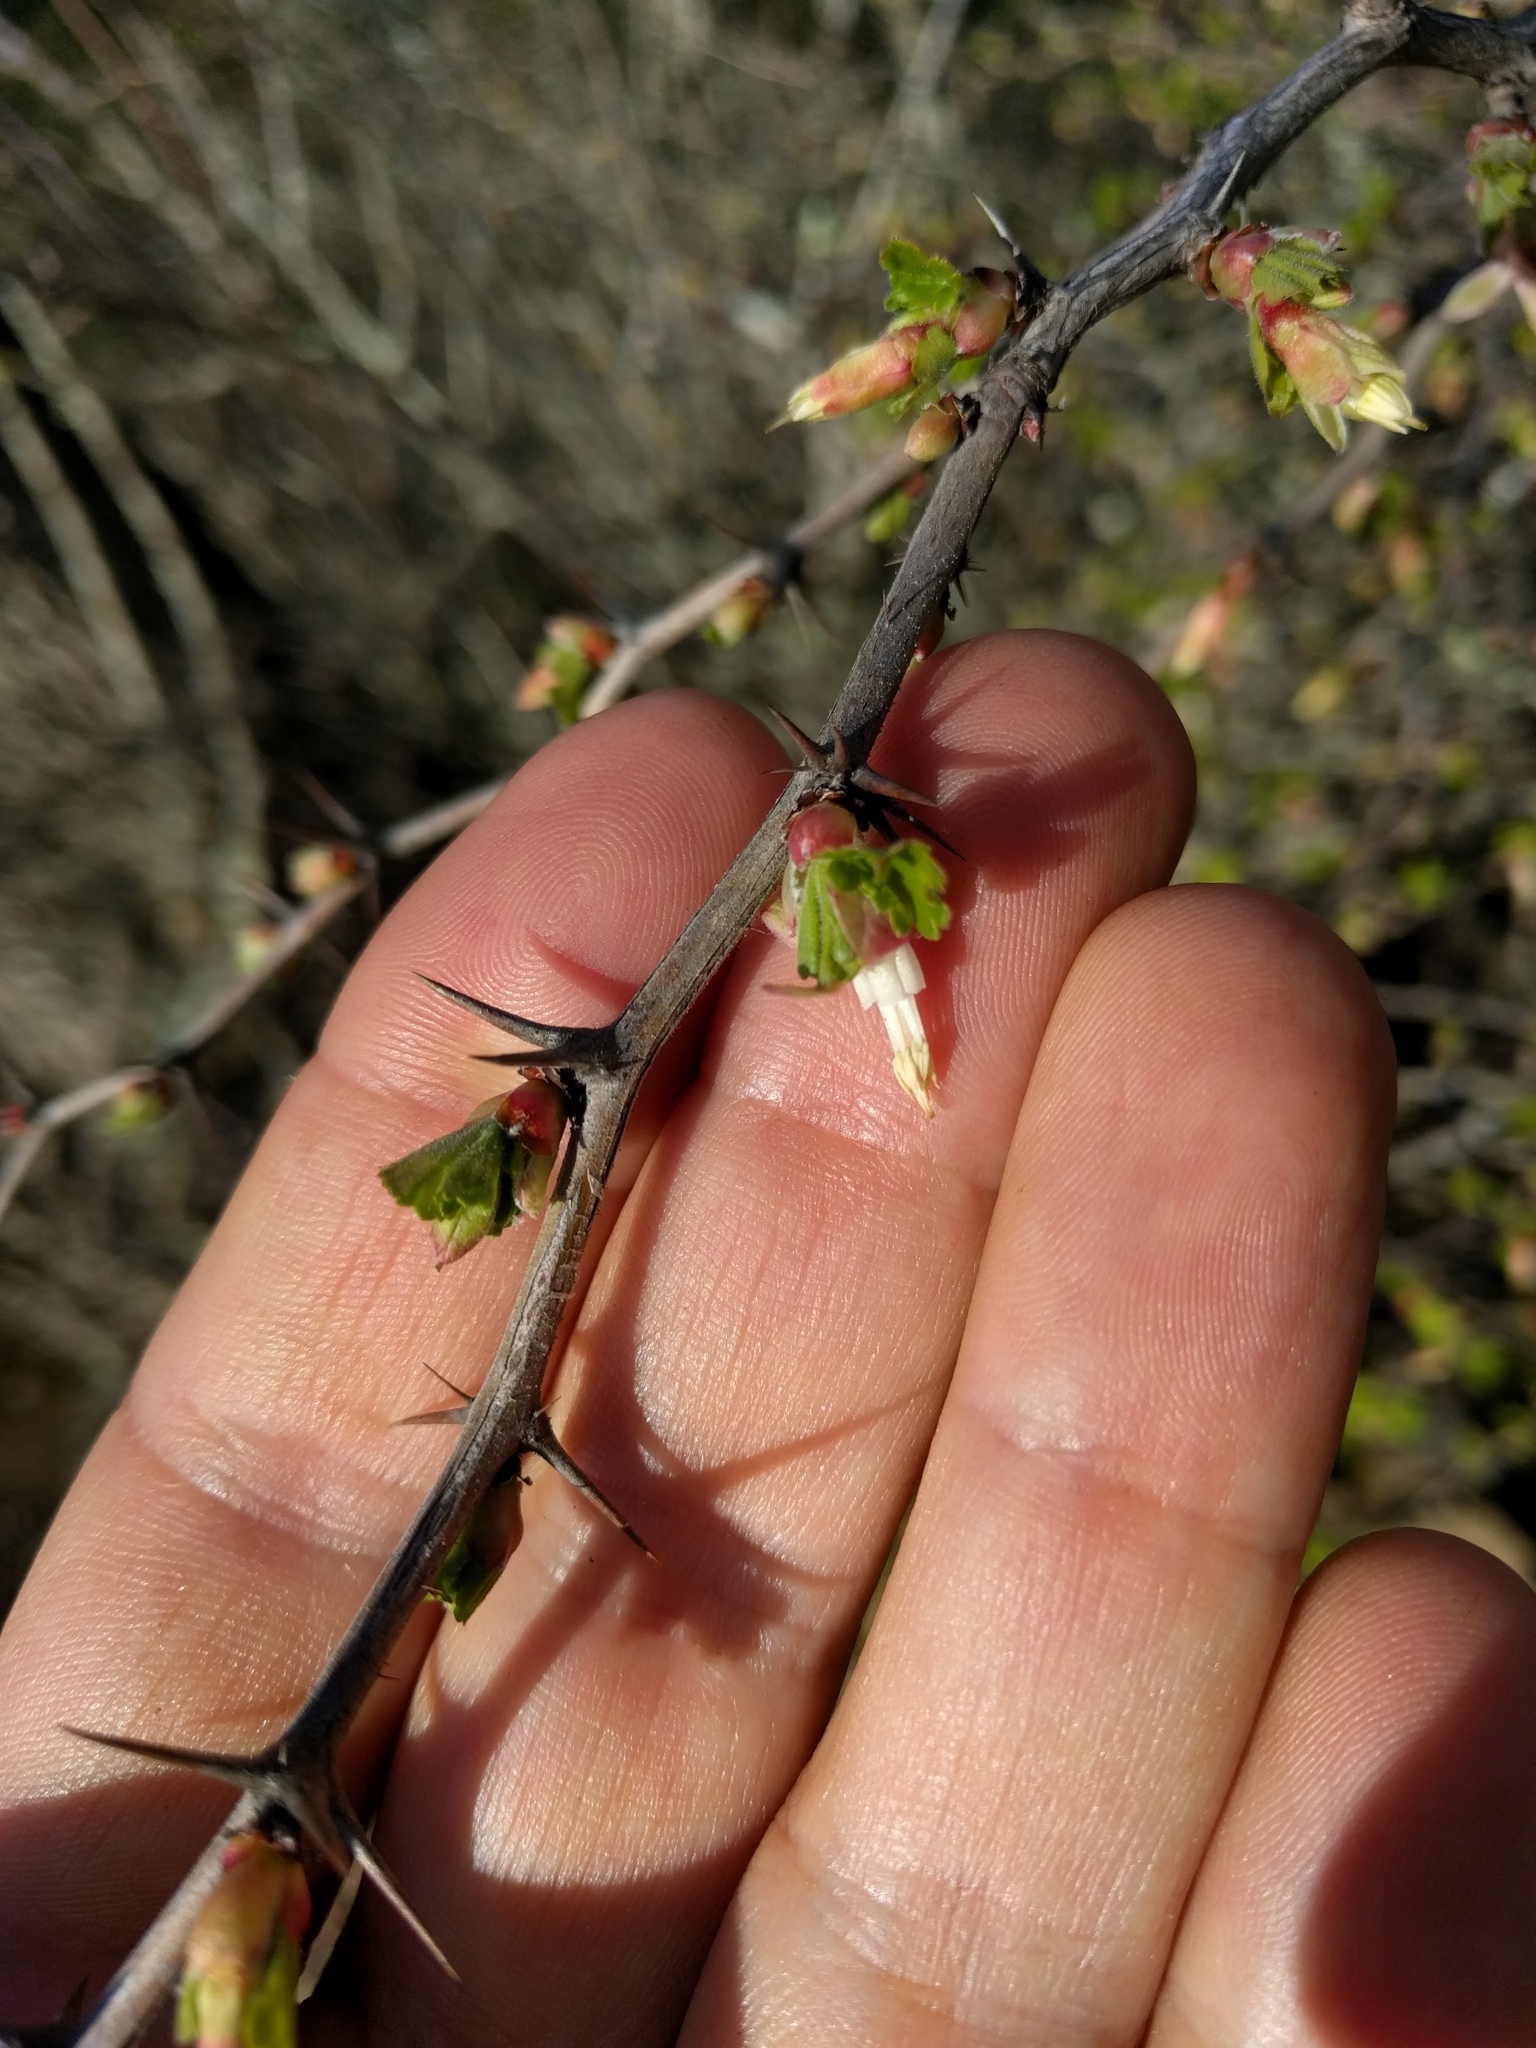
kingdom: Plantae
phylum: Tracheophyta
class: Magnoliopsida
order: Saxifragales
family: Grossulariaceae
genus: Ribes
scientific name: Ribes californicum
